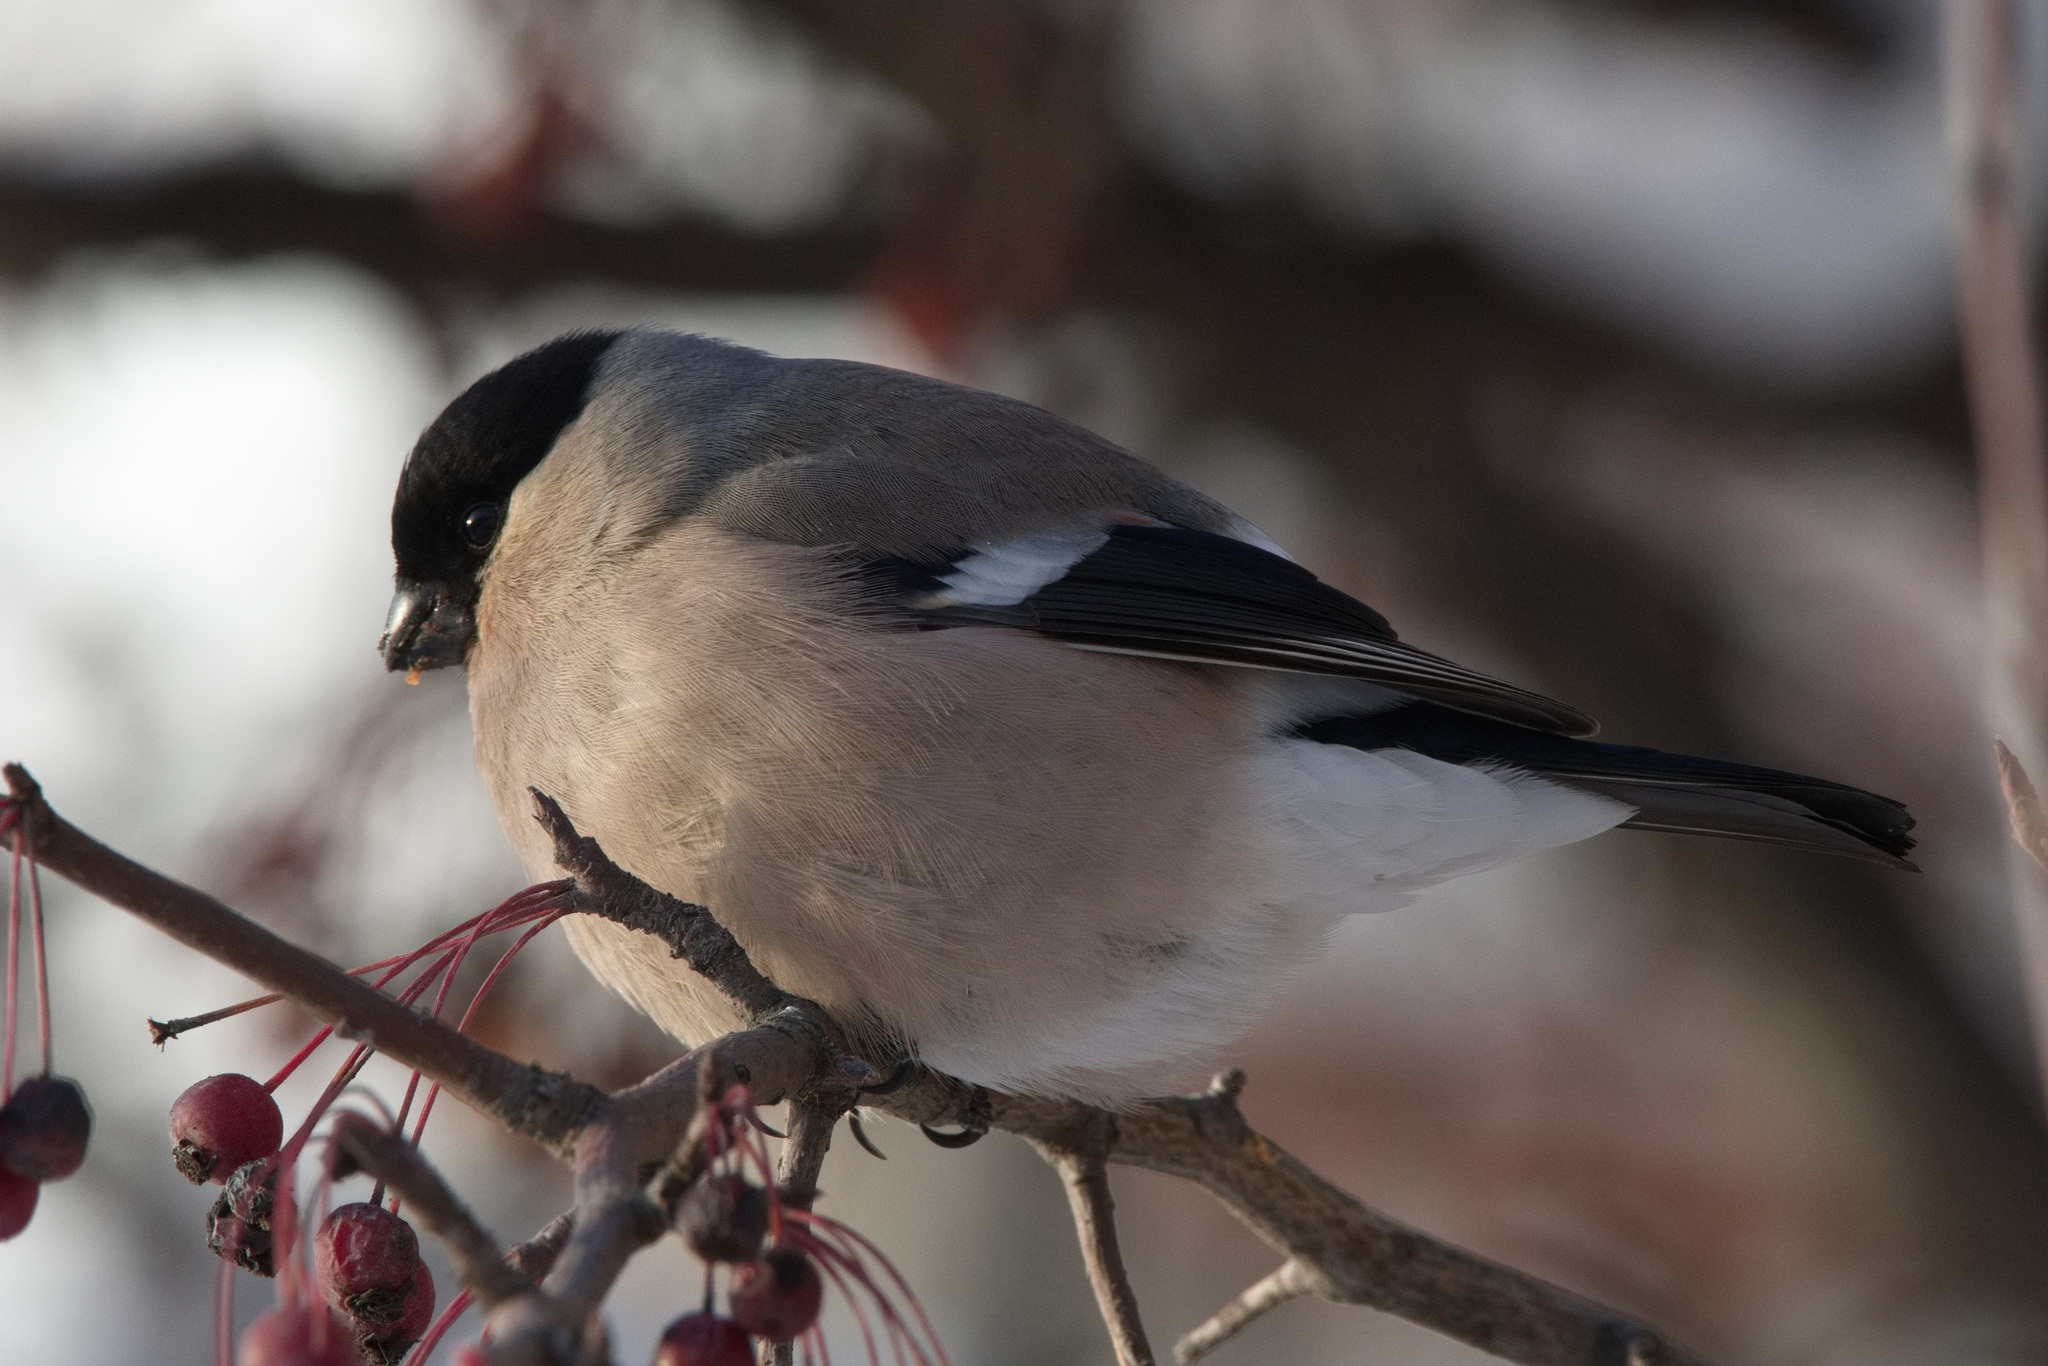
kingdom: Animalia
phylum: Chordata
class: Aves
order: Passeriformes
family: Fringillidae
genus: Pyrrhula
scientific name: Pyrrhula pyrrhula
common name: Eurasian bullfinch
